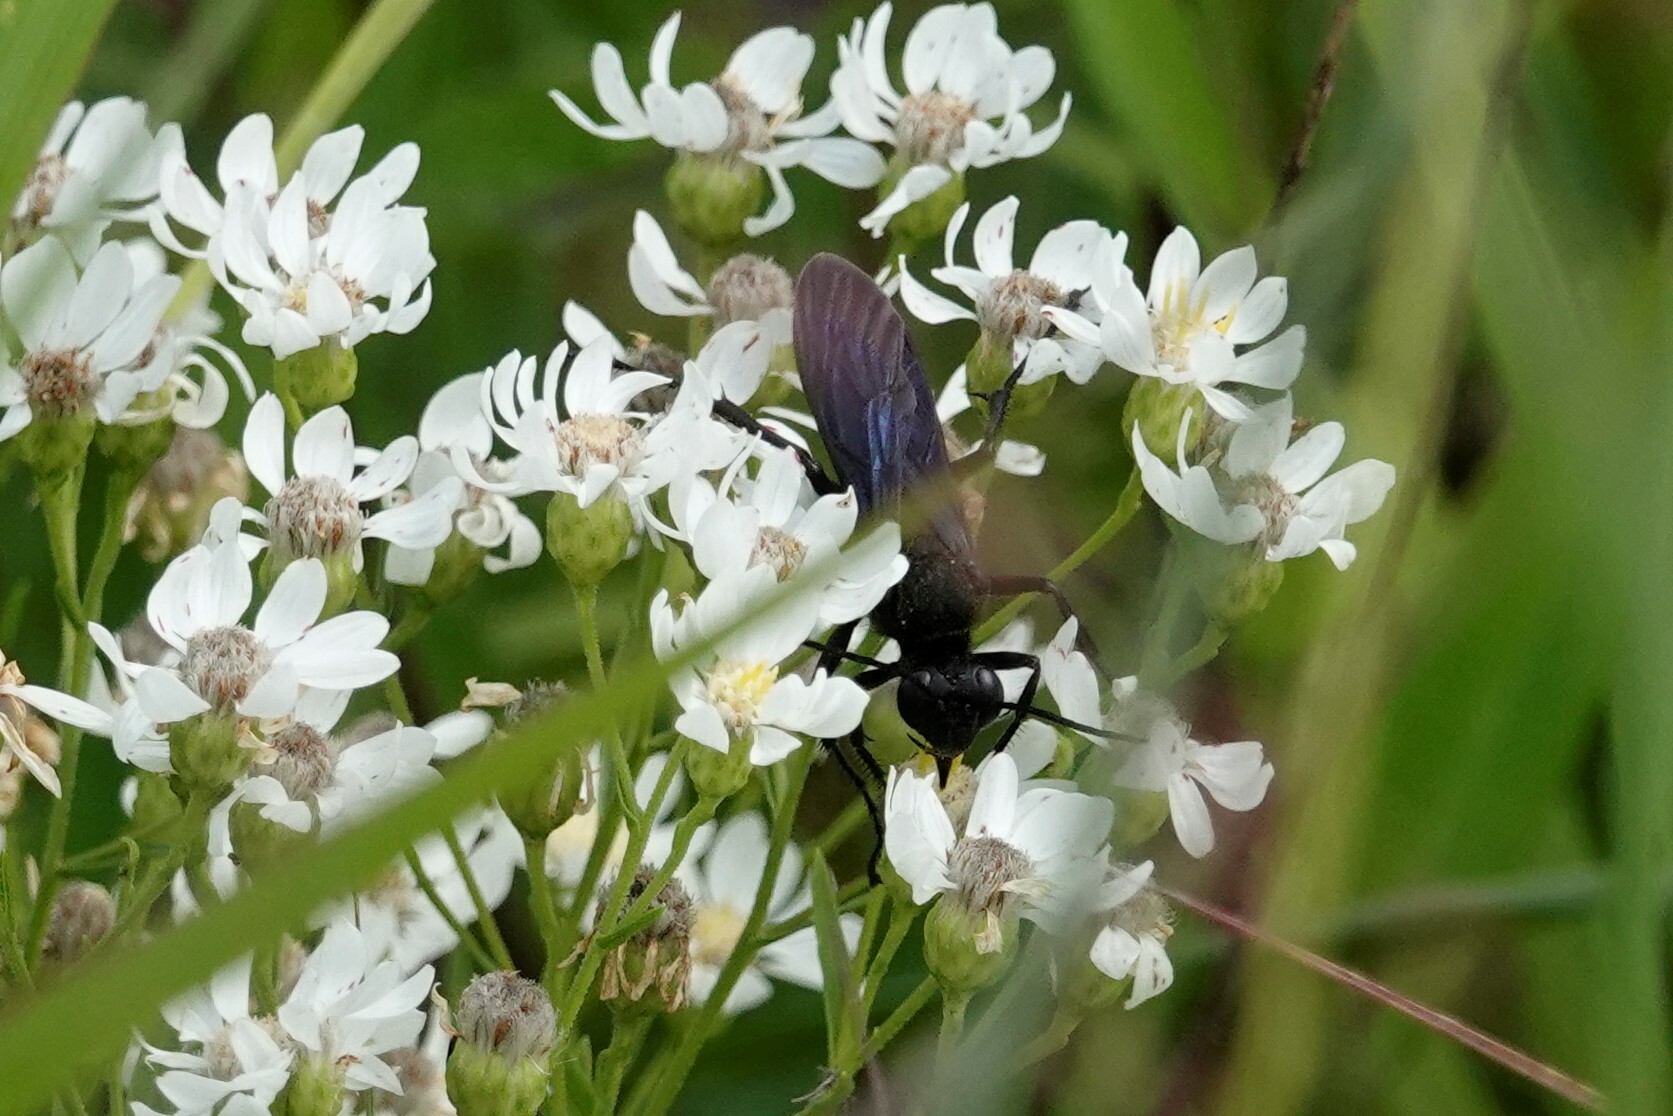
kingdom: Animalia
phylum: Arthropoda
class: Insecta
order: Hymenoptera
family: Sphecidae
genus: Sphex
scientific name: Sphex pensylvanicus
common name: Great black digger wasp
